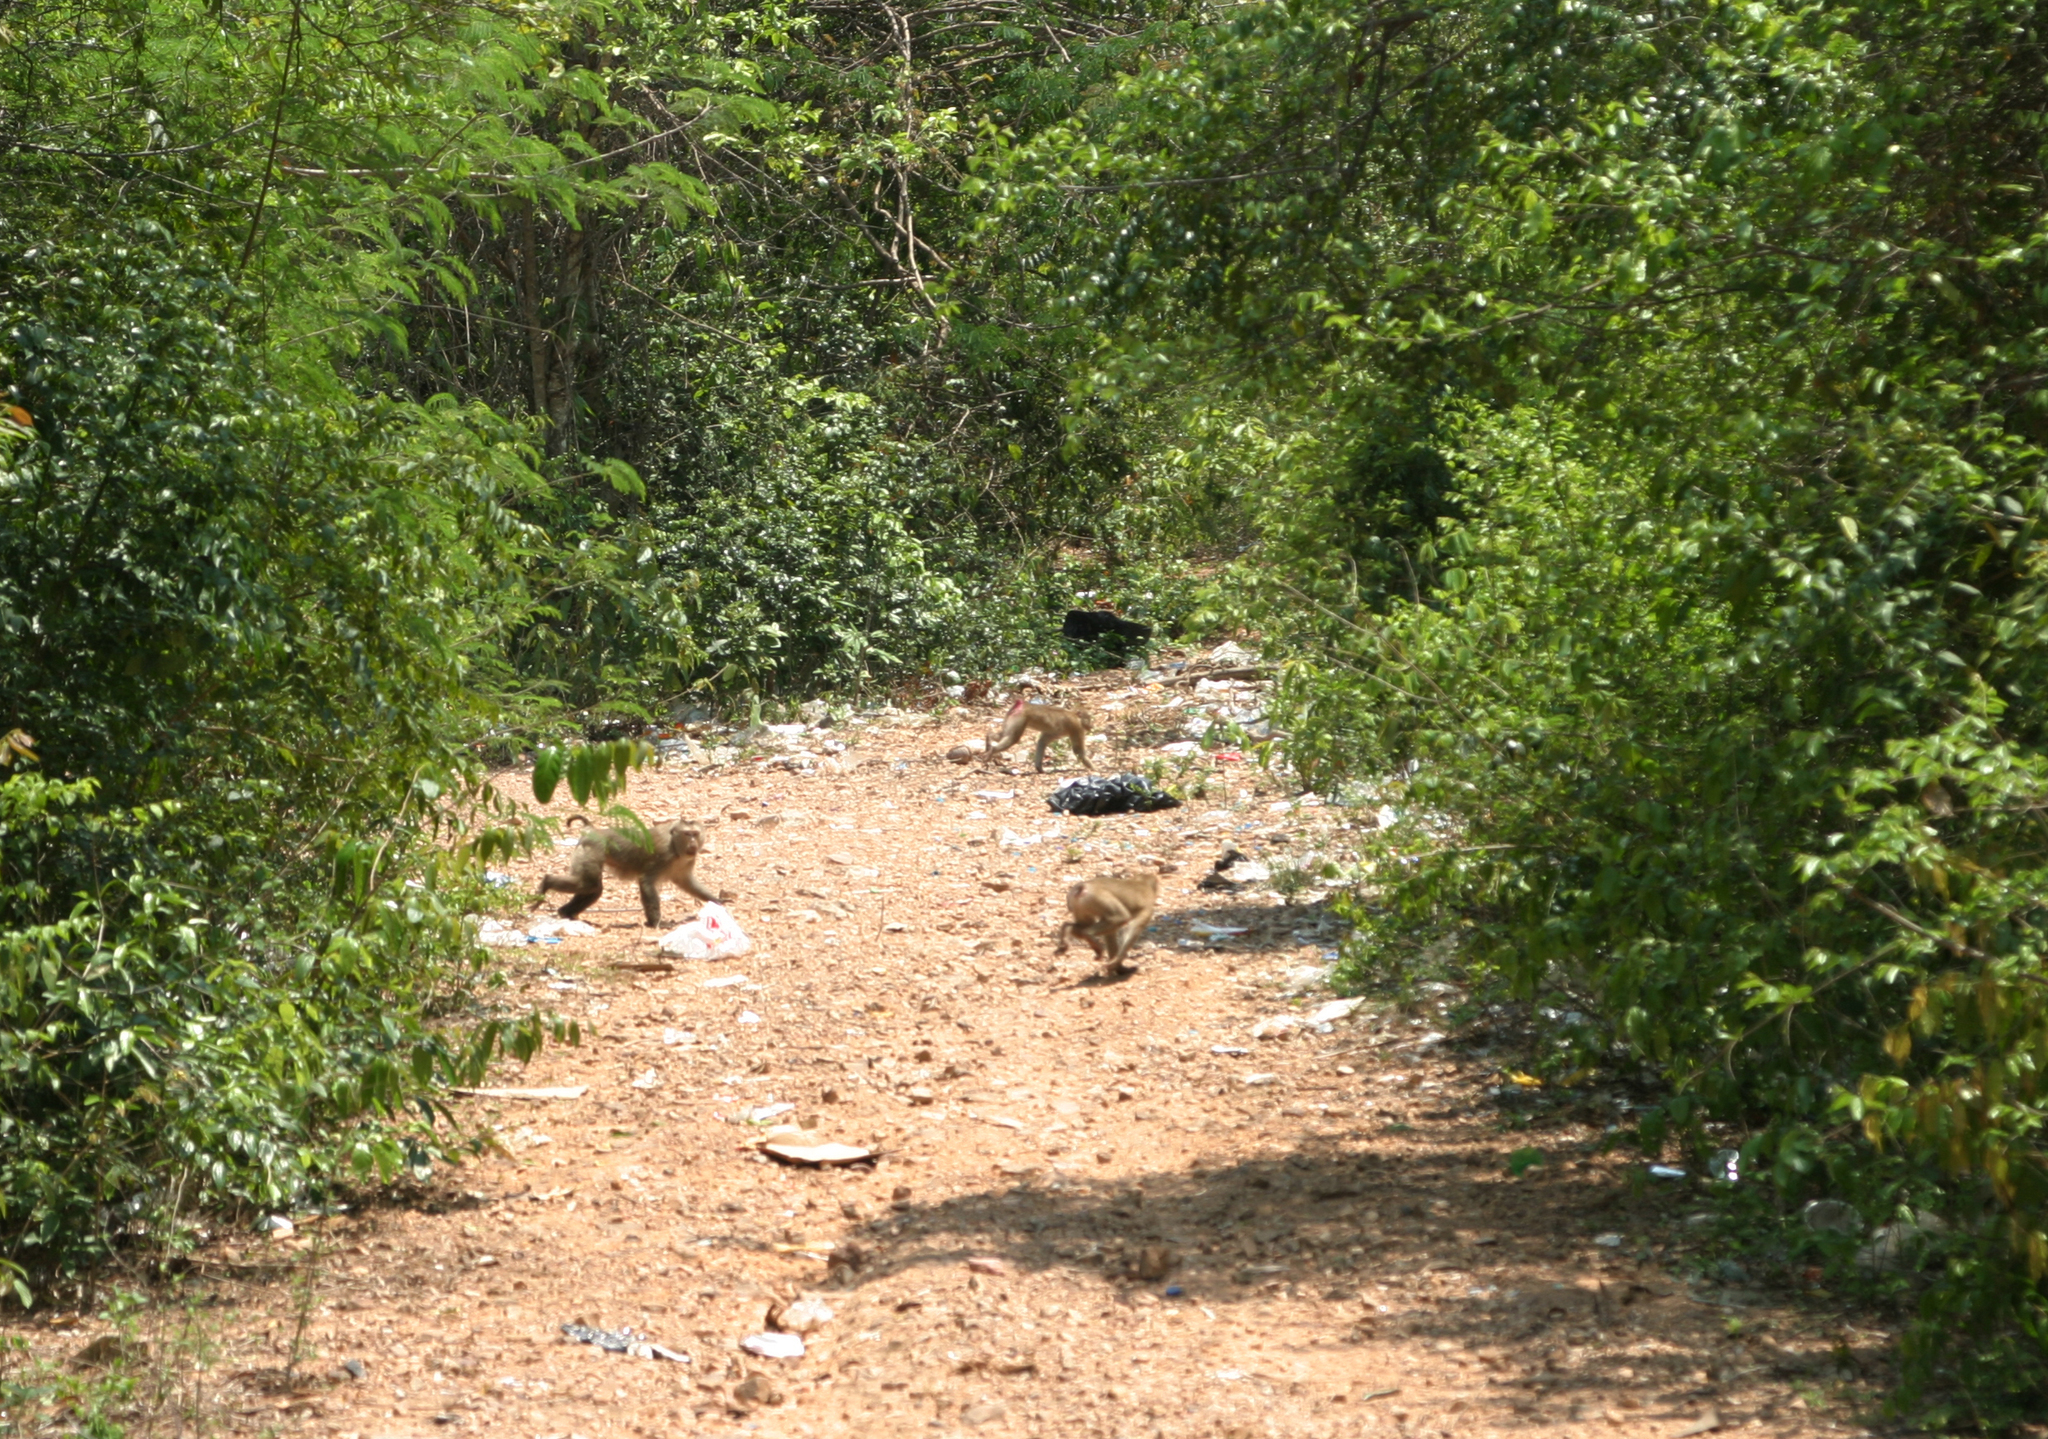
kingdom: Animalia
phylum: Chordata
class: Mammalia
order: Primates
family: Cercopithecidae
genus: Macaca
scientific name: Macaca leonina
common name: Northern pig-tailed macaque
